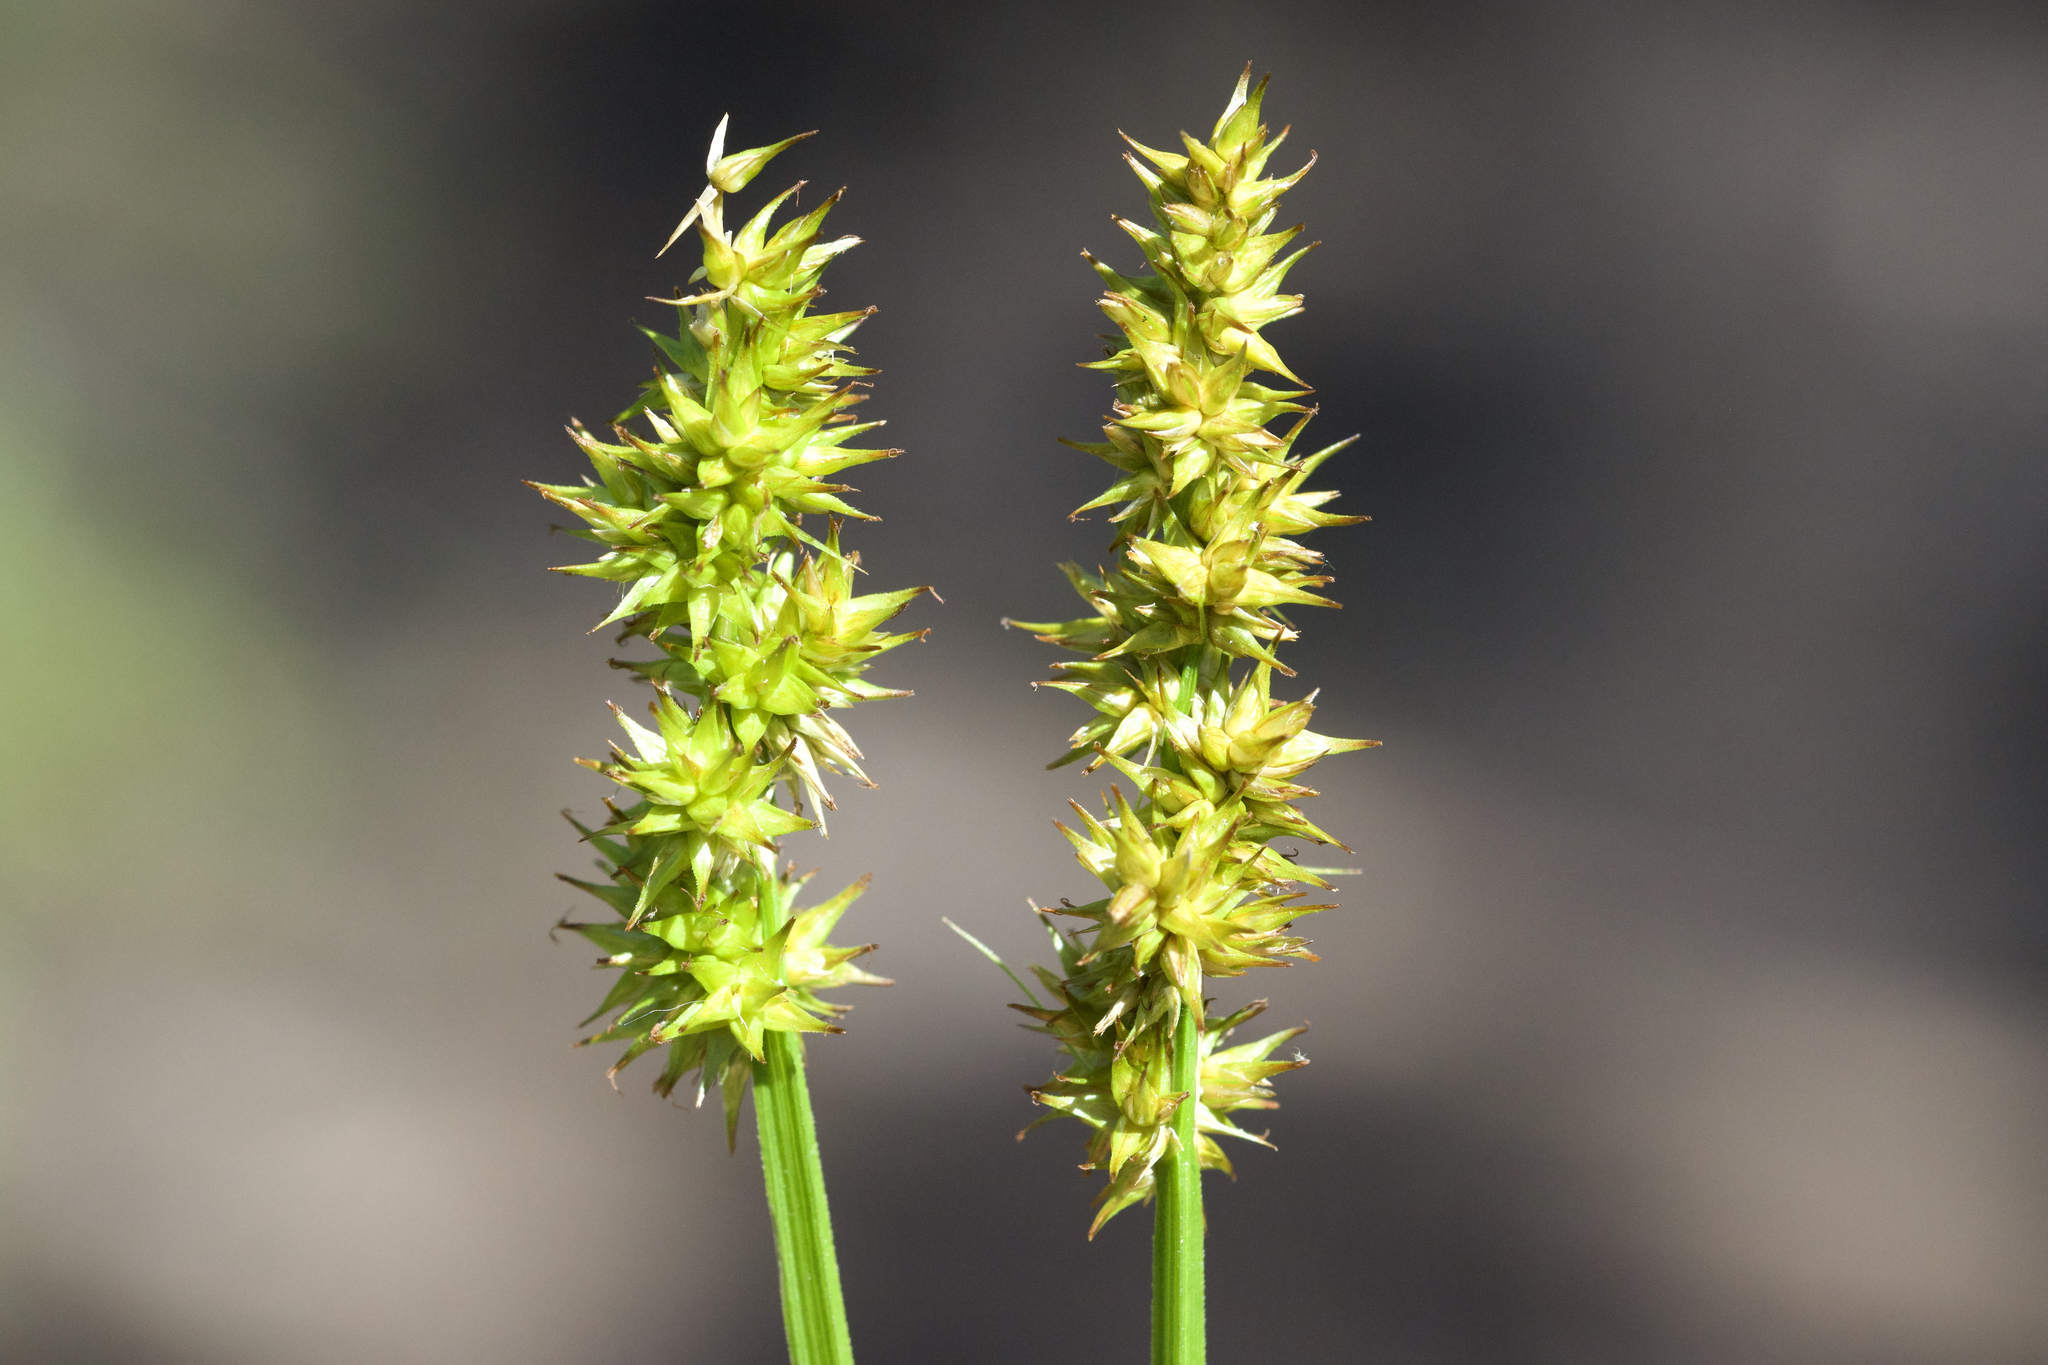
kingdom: Plantae
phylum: Tracheophyta
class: Liliopsida
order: Poales
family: Cyperaceae
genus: Carex
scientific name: Carex stipata
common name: Awl-fruited sedge
